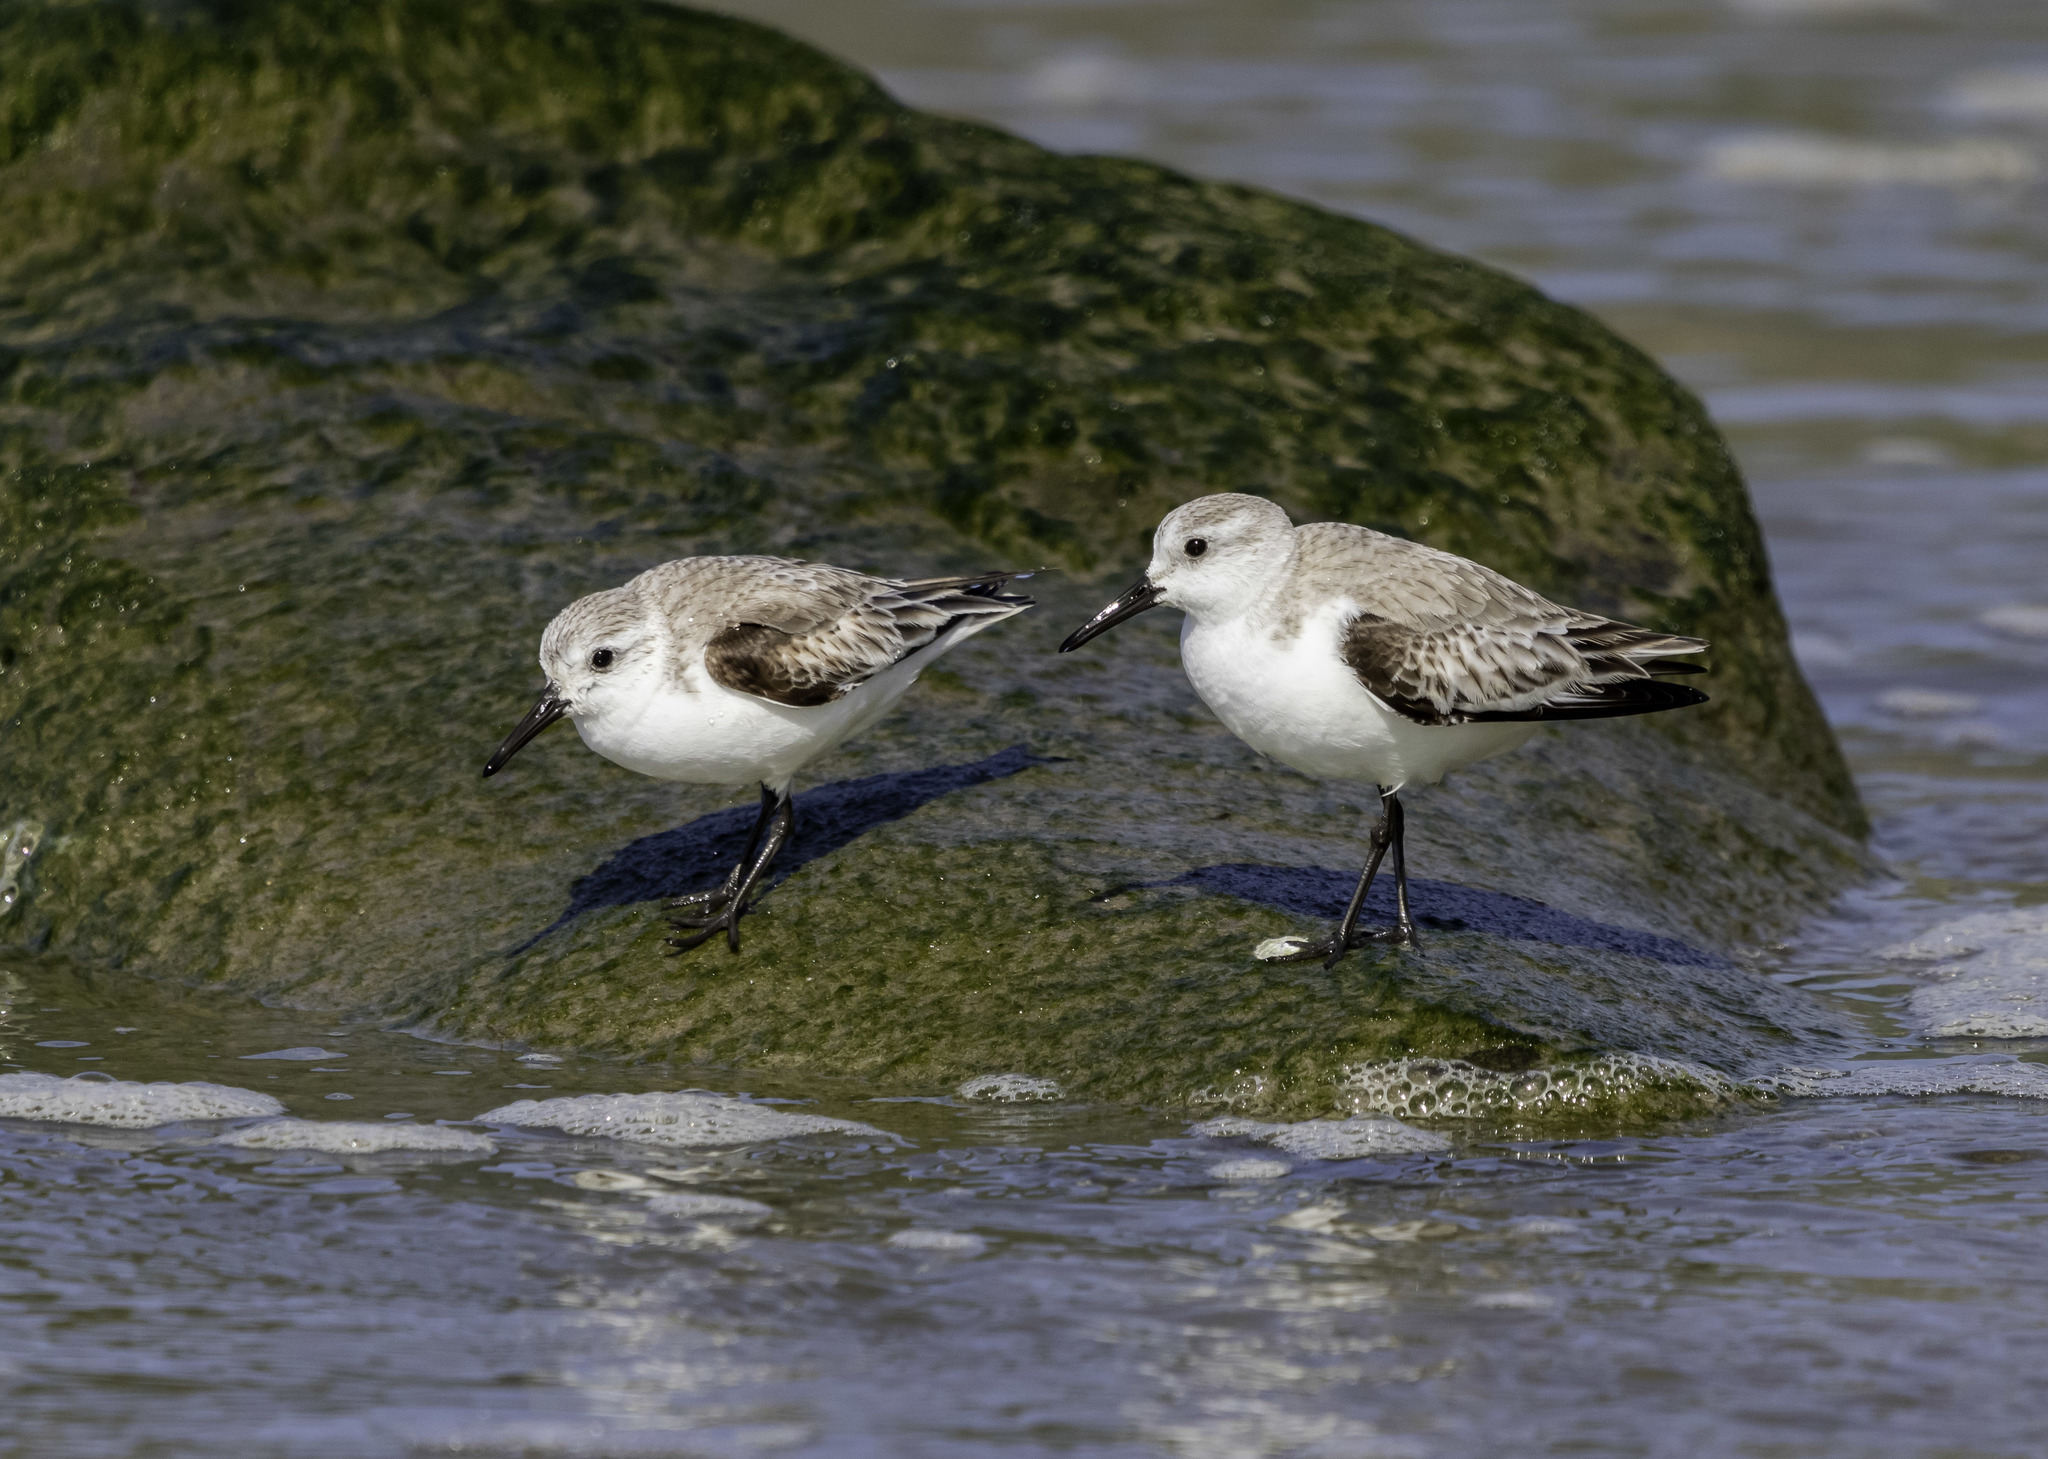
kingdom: Animalia
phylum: Chordata
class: Aves
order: Charadriiformes
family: Scolopacidae
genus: Calidris
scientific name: Calidris alba
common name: Sanderling
